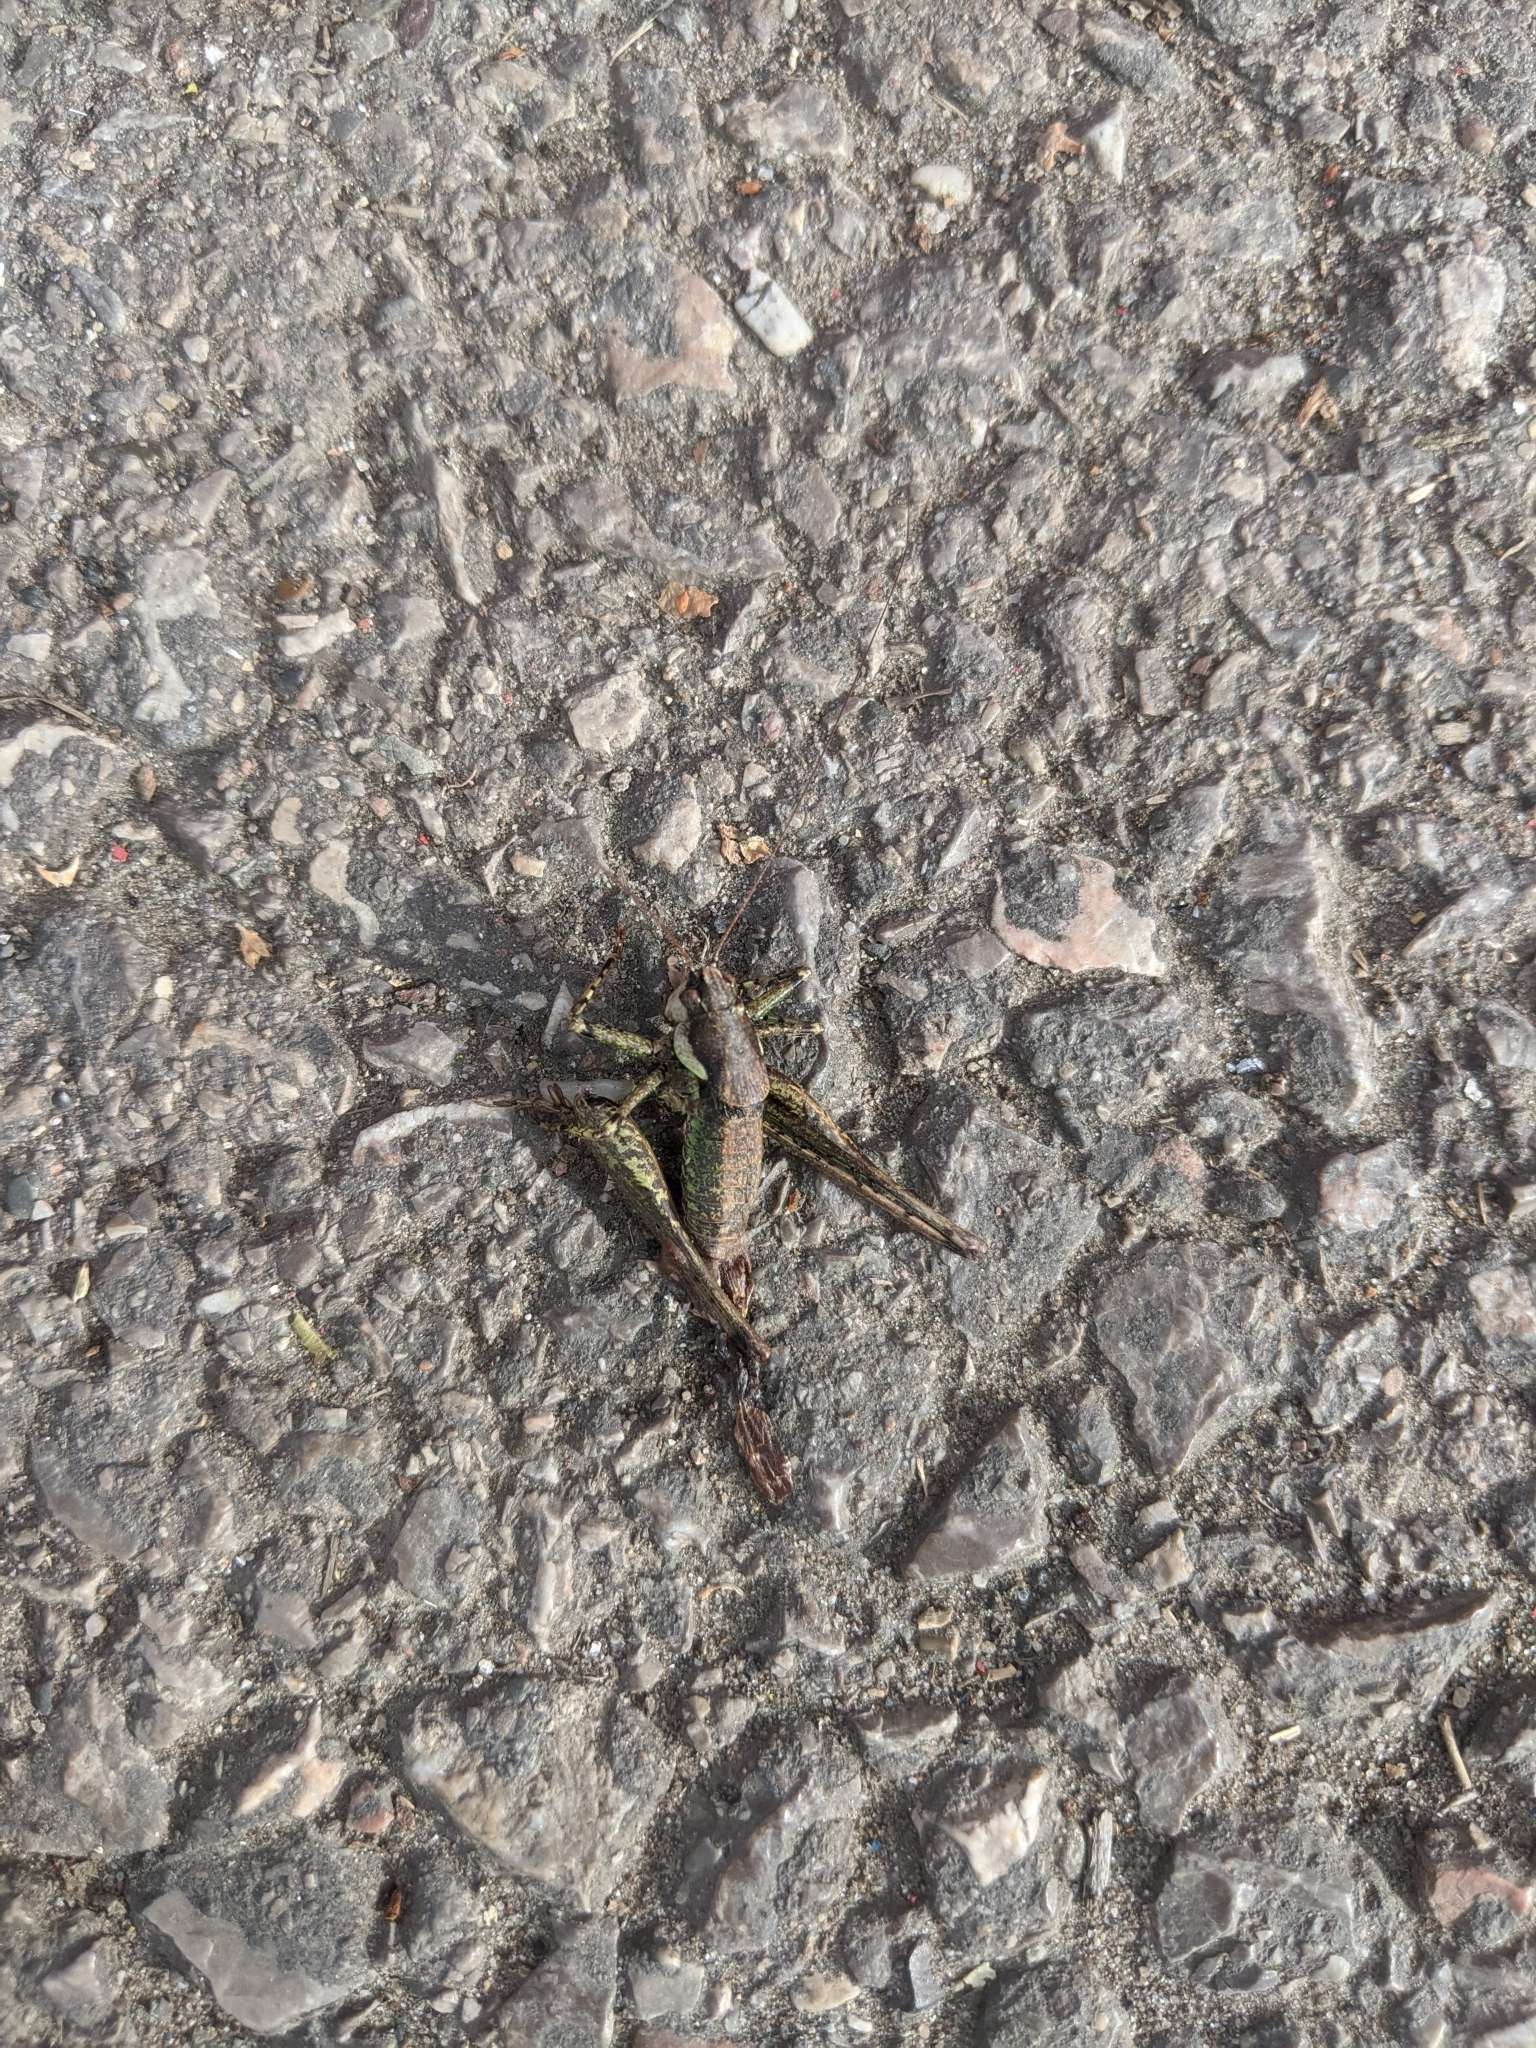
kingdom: Animalia
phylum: Arthropoda
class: Insecta
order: Orthoptera
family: Tettigoniidae
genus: Rhacocleis
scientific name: Rhacocleis annulata
